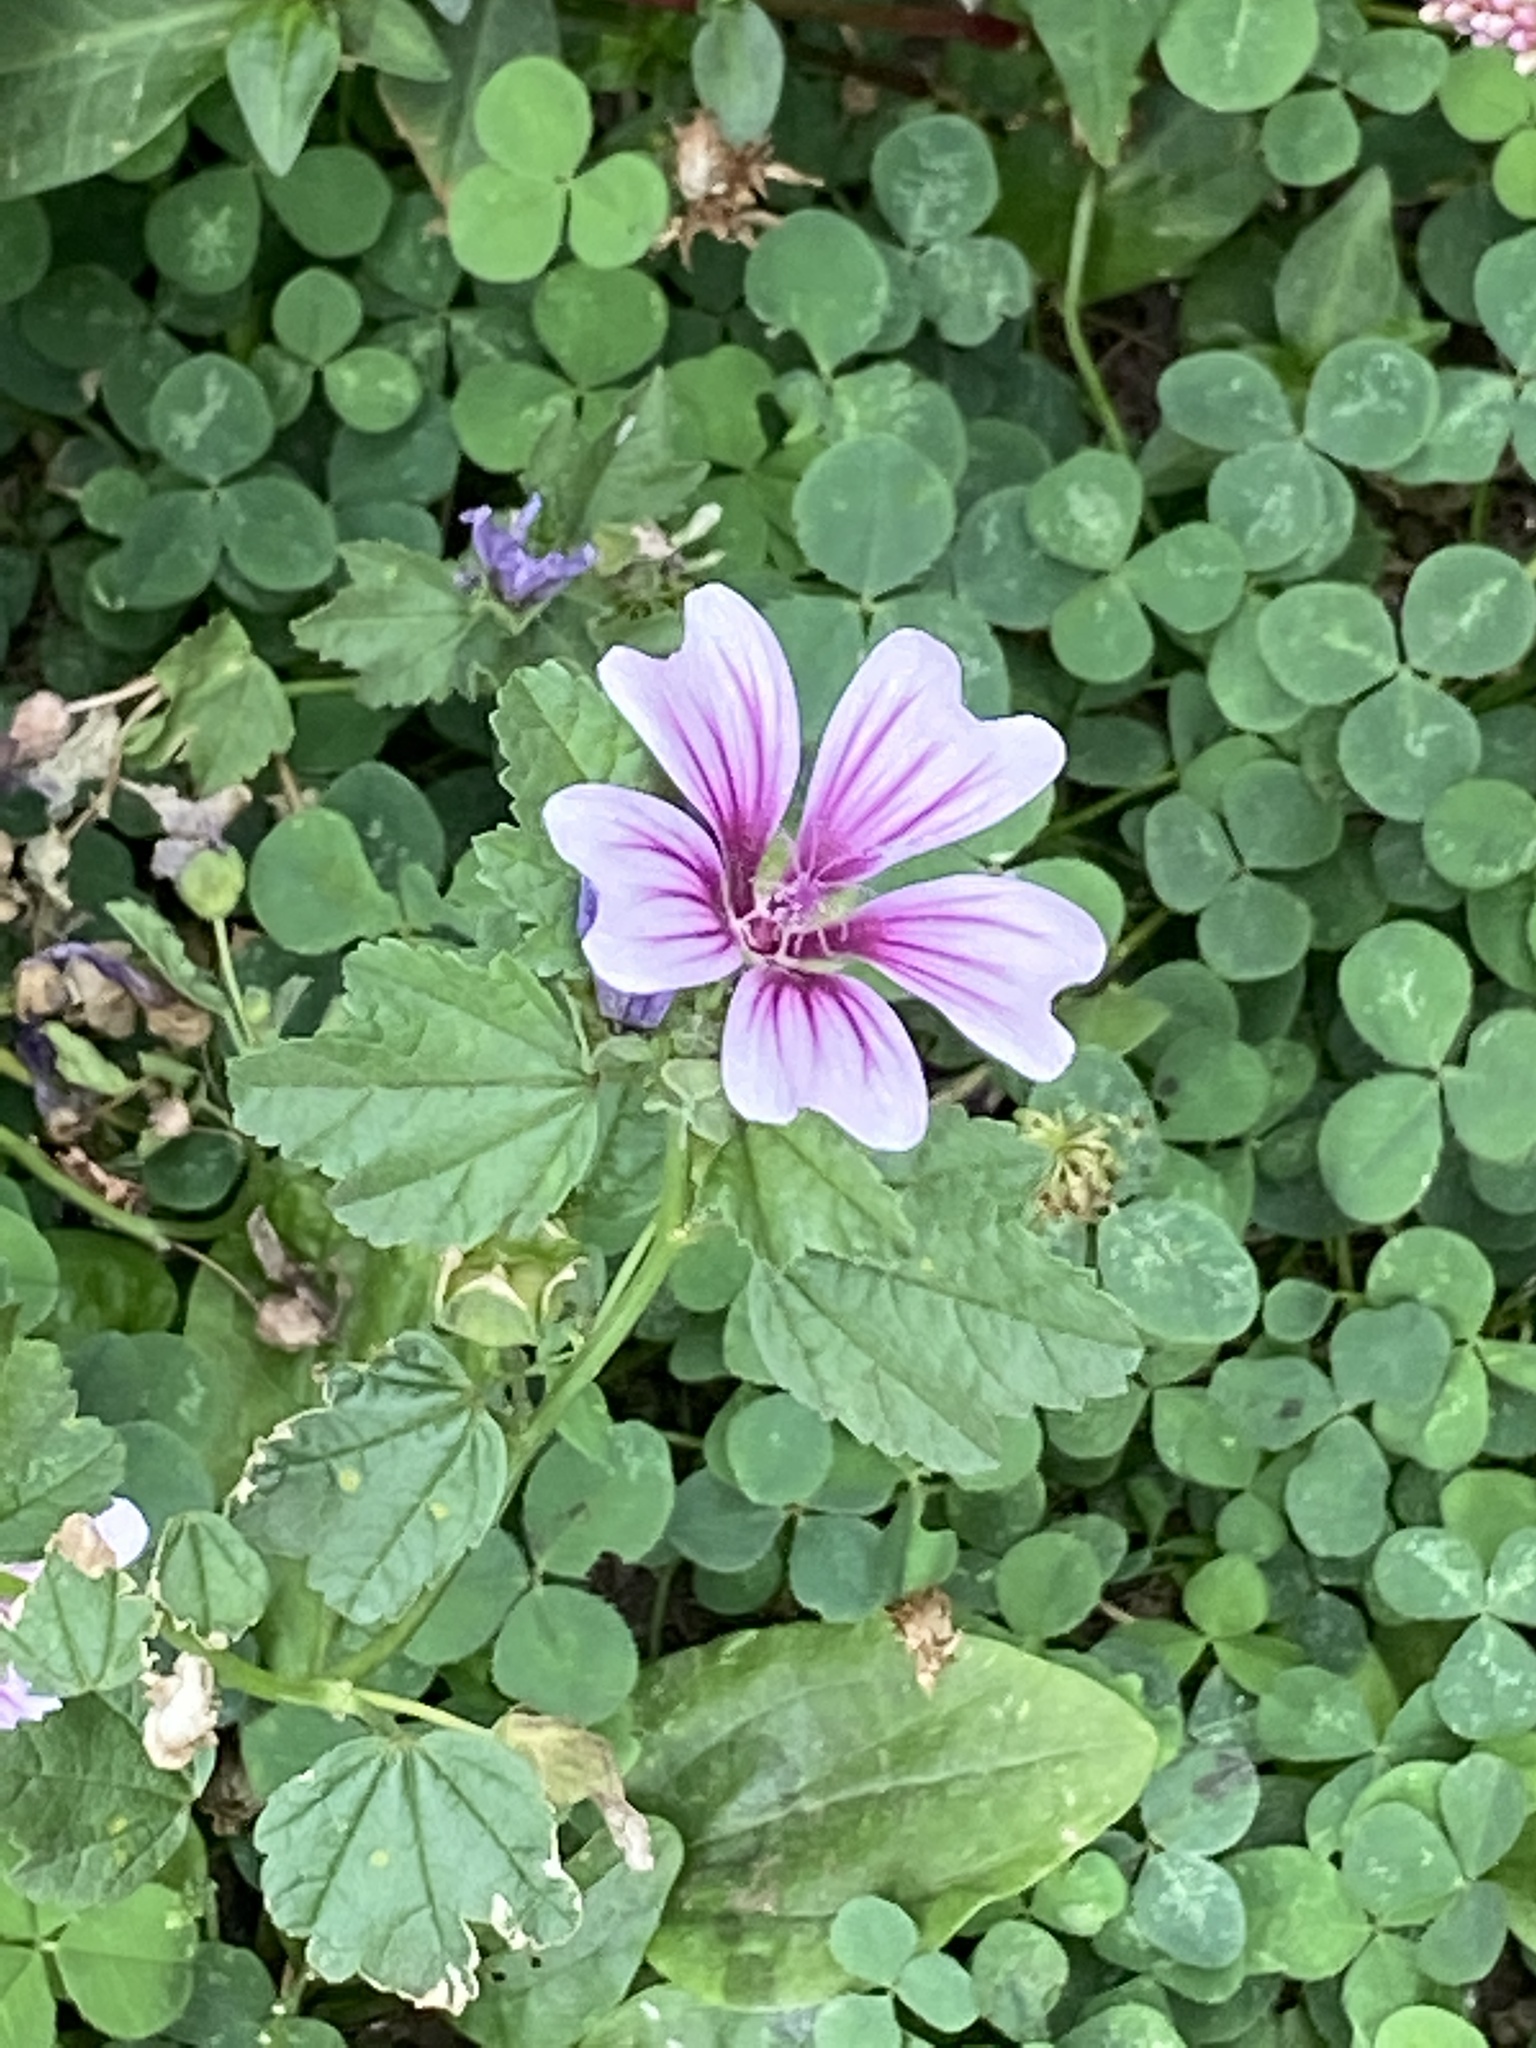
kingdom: Plantae
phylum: Tracheophyta
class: Magnoliopsida
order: Malvales
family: Malvaceae
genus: Malva
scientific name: Malva sylvestris
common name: Common mallow
